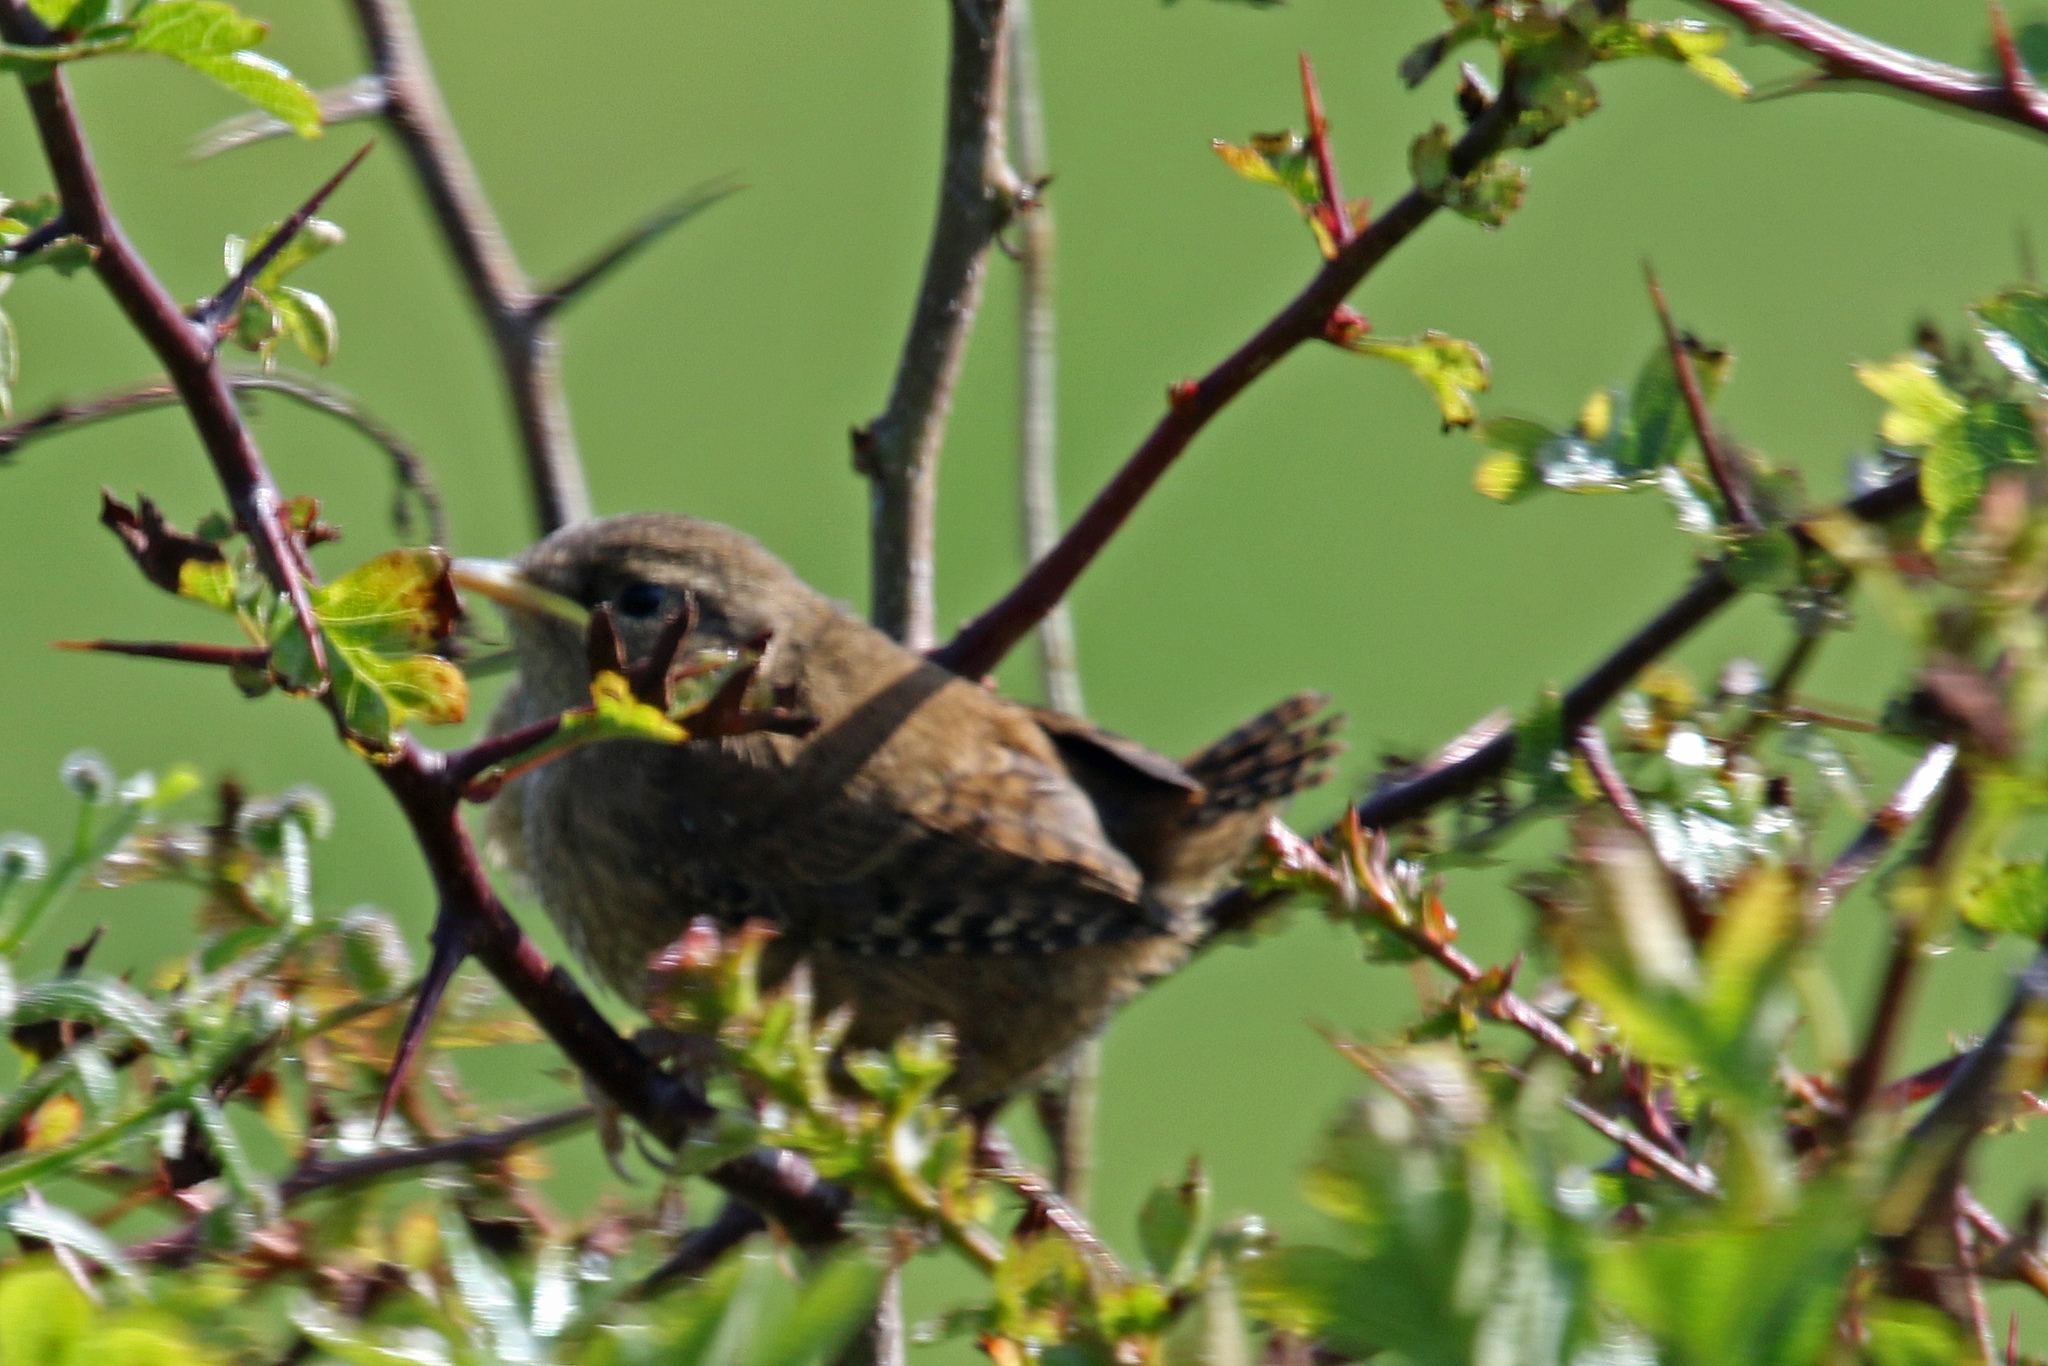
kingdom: Animalia
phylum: Chordata
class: Aves
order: Passeriformes
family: Troglodytidae
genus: Troglodytes
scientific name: Troglodytes troglodytes
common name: Eurasian wren
